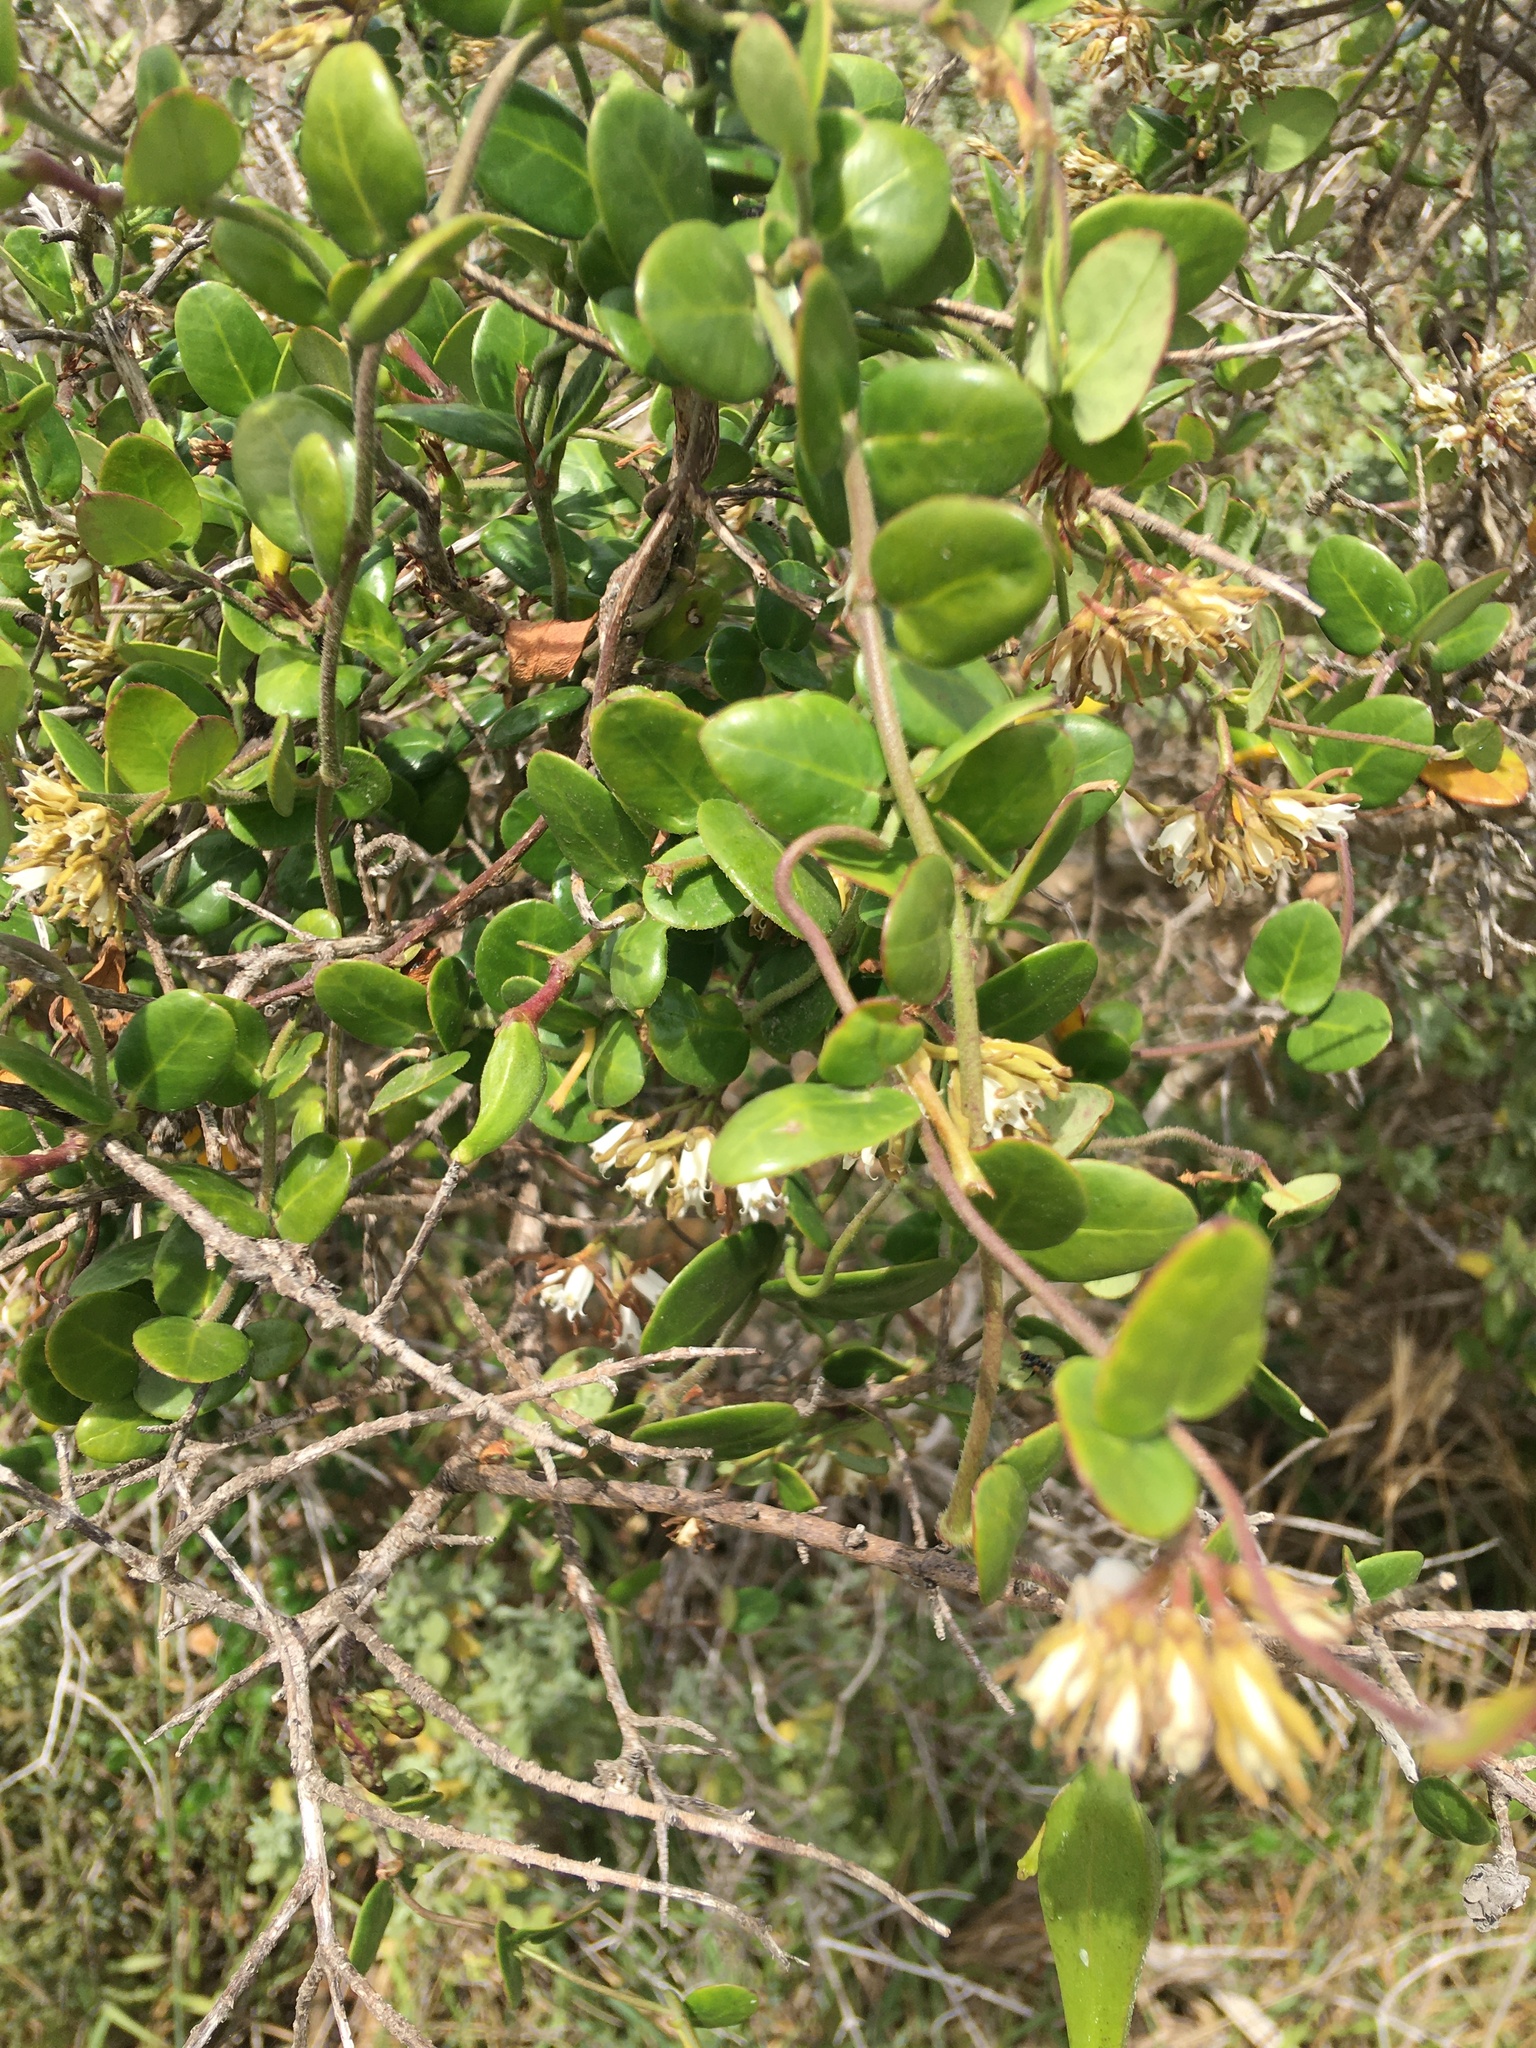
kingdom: Plantae
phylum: Tracheophyta
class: Magnoliopsida
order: Gentianales
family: Apocynaceae
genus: Cynanchum
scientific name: Cynanchum africanum
